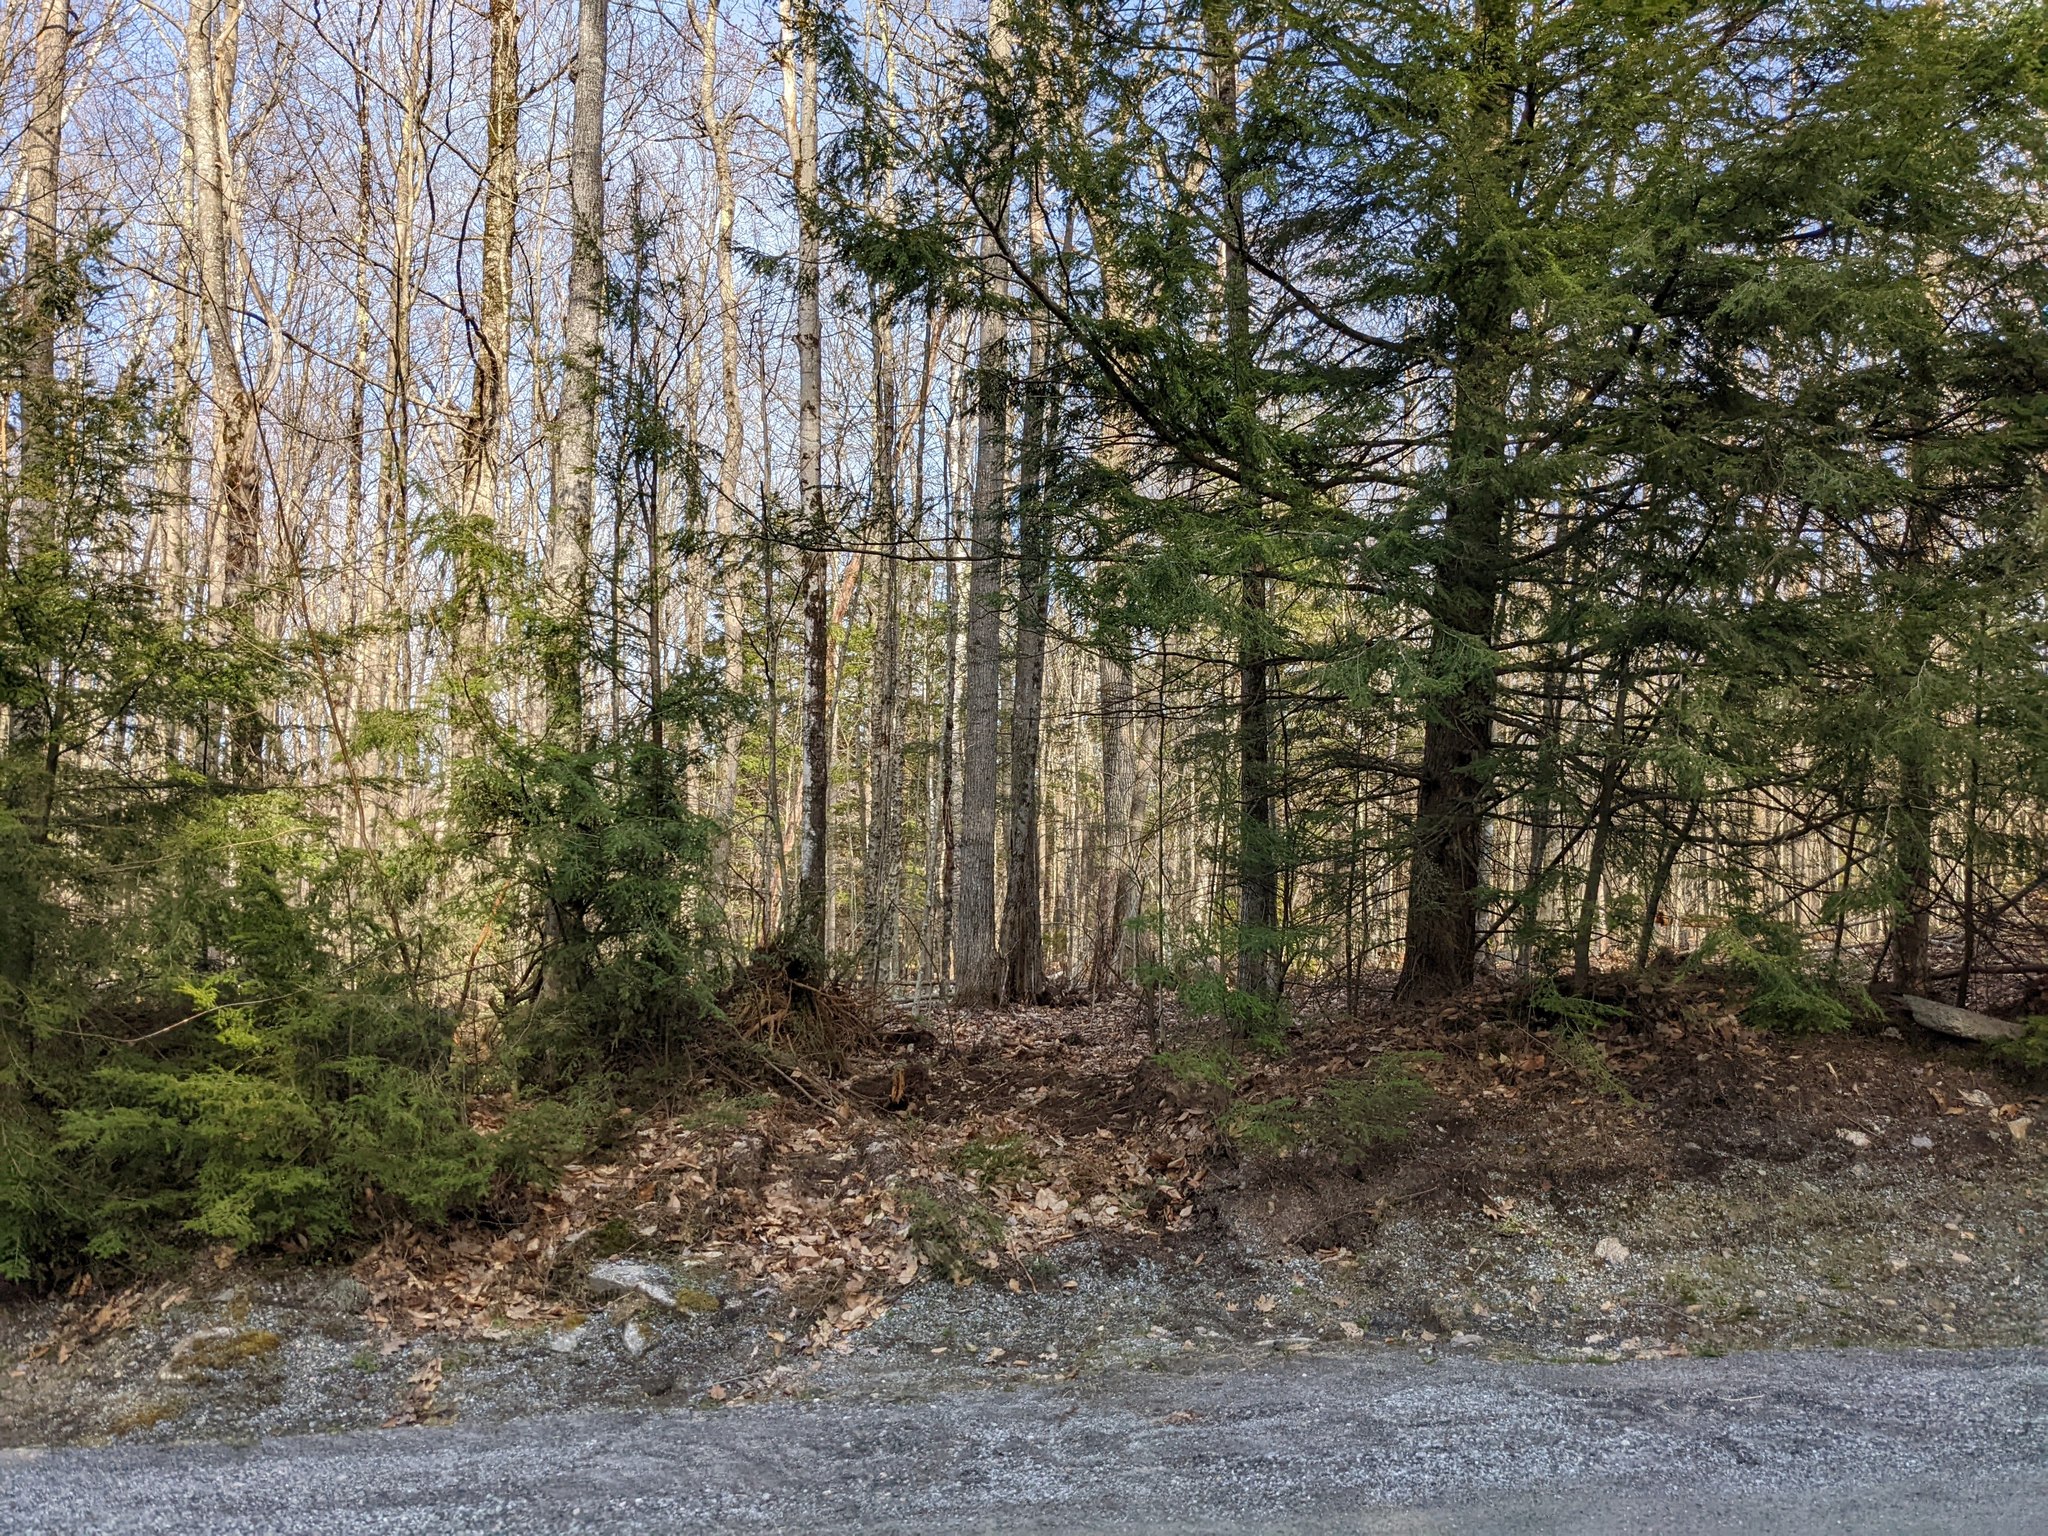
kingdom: Plantae
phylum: Tracheophyta
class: Pinopsida
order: Pinales
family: Pinaceae
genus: Tsuga
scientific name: Tsuga canadensis
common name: Eastern hemlock
